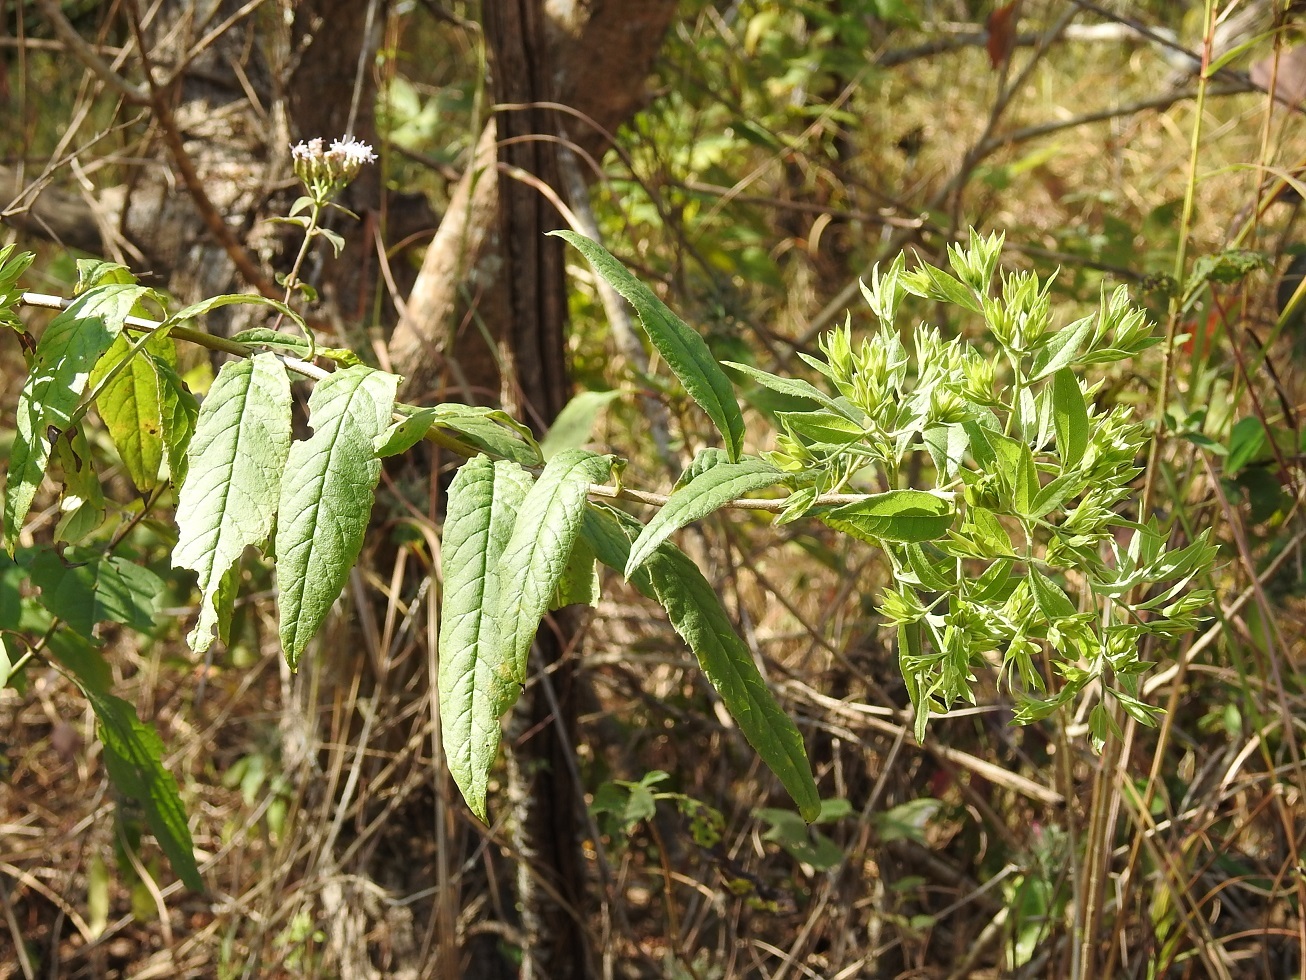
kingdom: Plantae
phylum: Tracheophyta
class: Magnoliopsida
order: Asterales
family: Asteraceae
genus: Trixis
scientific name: Trixis anomala
